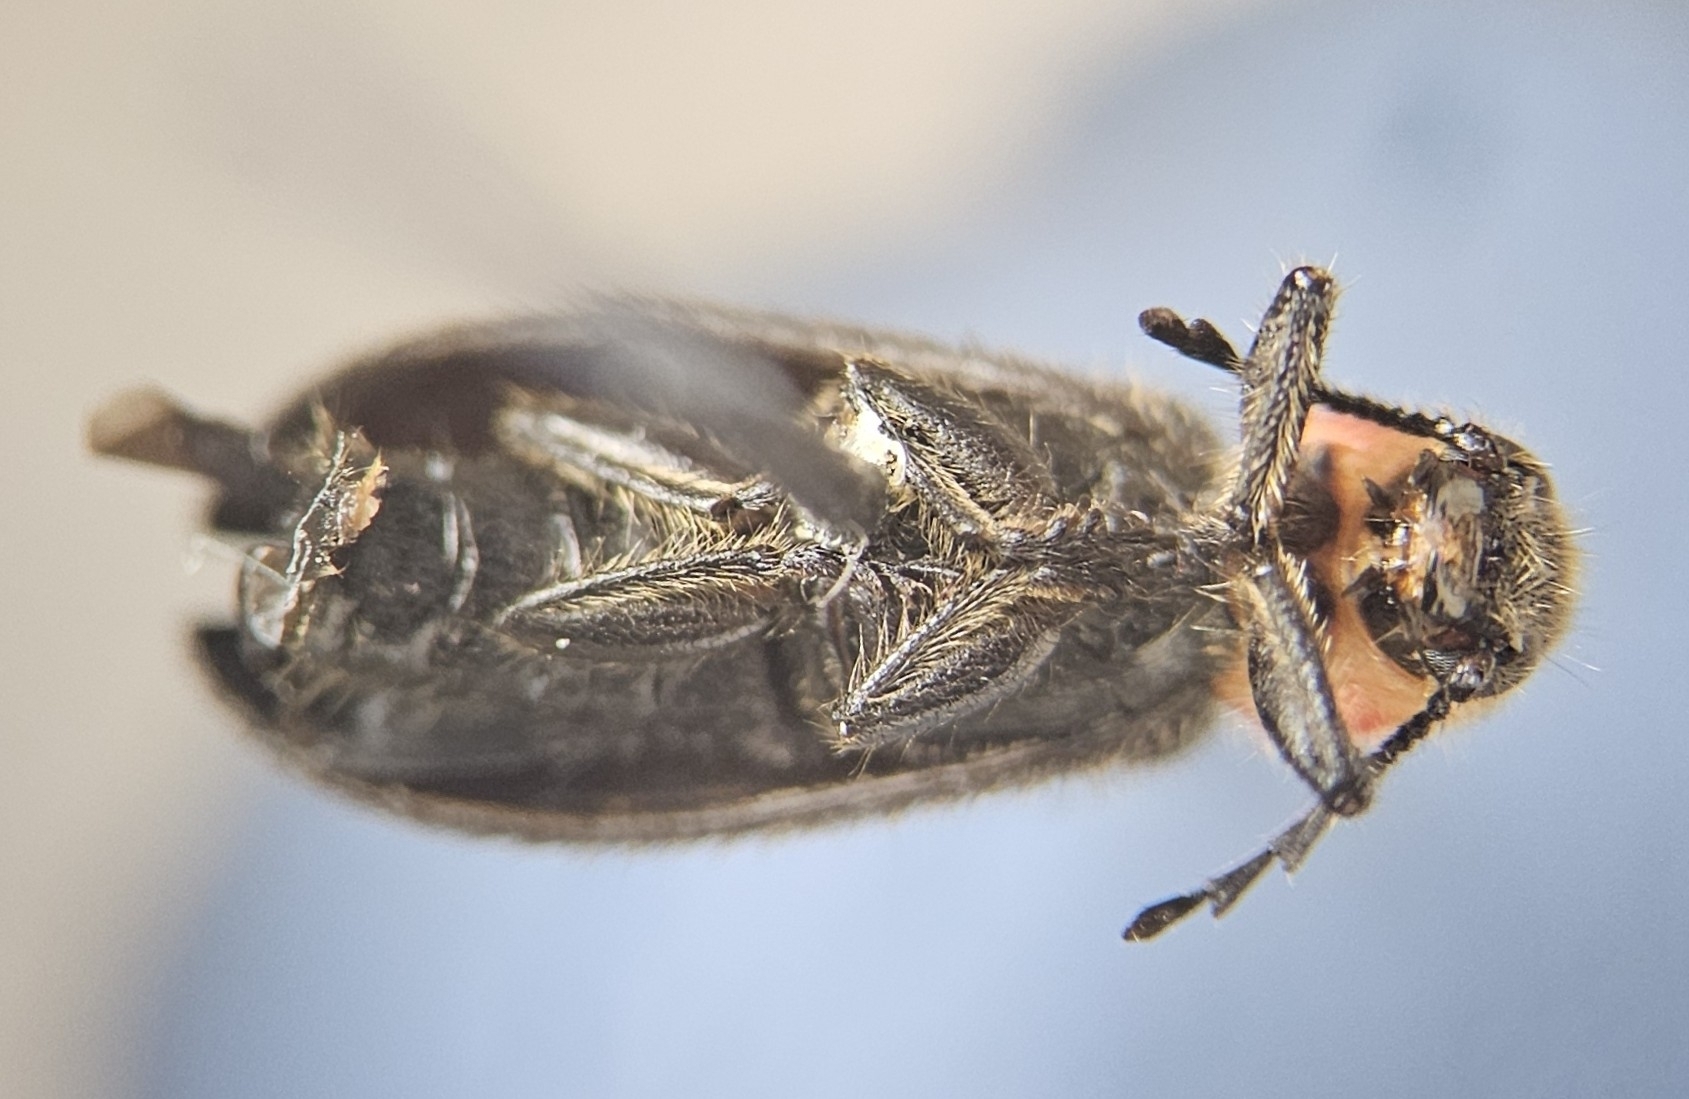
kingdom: Animalia
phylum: Arthropoda
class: Insecta
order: Coleoptera
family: Cleridae
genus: Chariessa
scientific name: Chariessa pilosa
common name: Pilose checkered beetle
